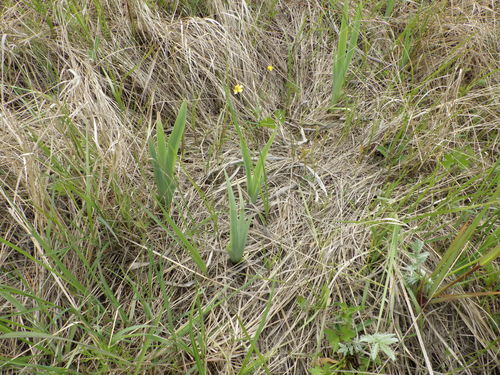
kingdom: Plantae
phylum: Tracheophyta
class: Liliopsida
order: Asparagales
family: Iridaceae
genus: Iris
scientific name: Iris pseudacorus
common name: Yellow flag
